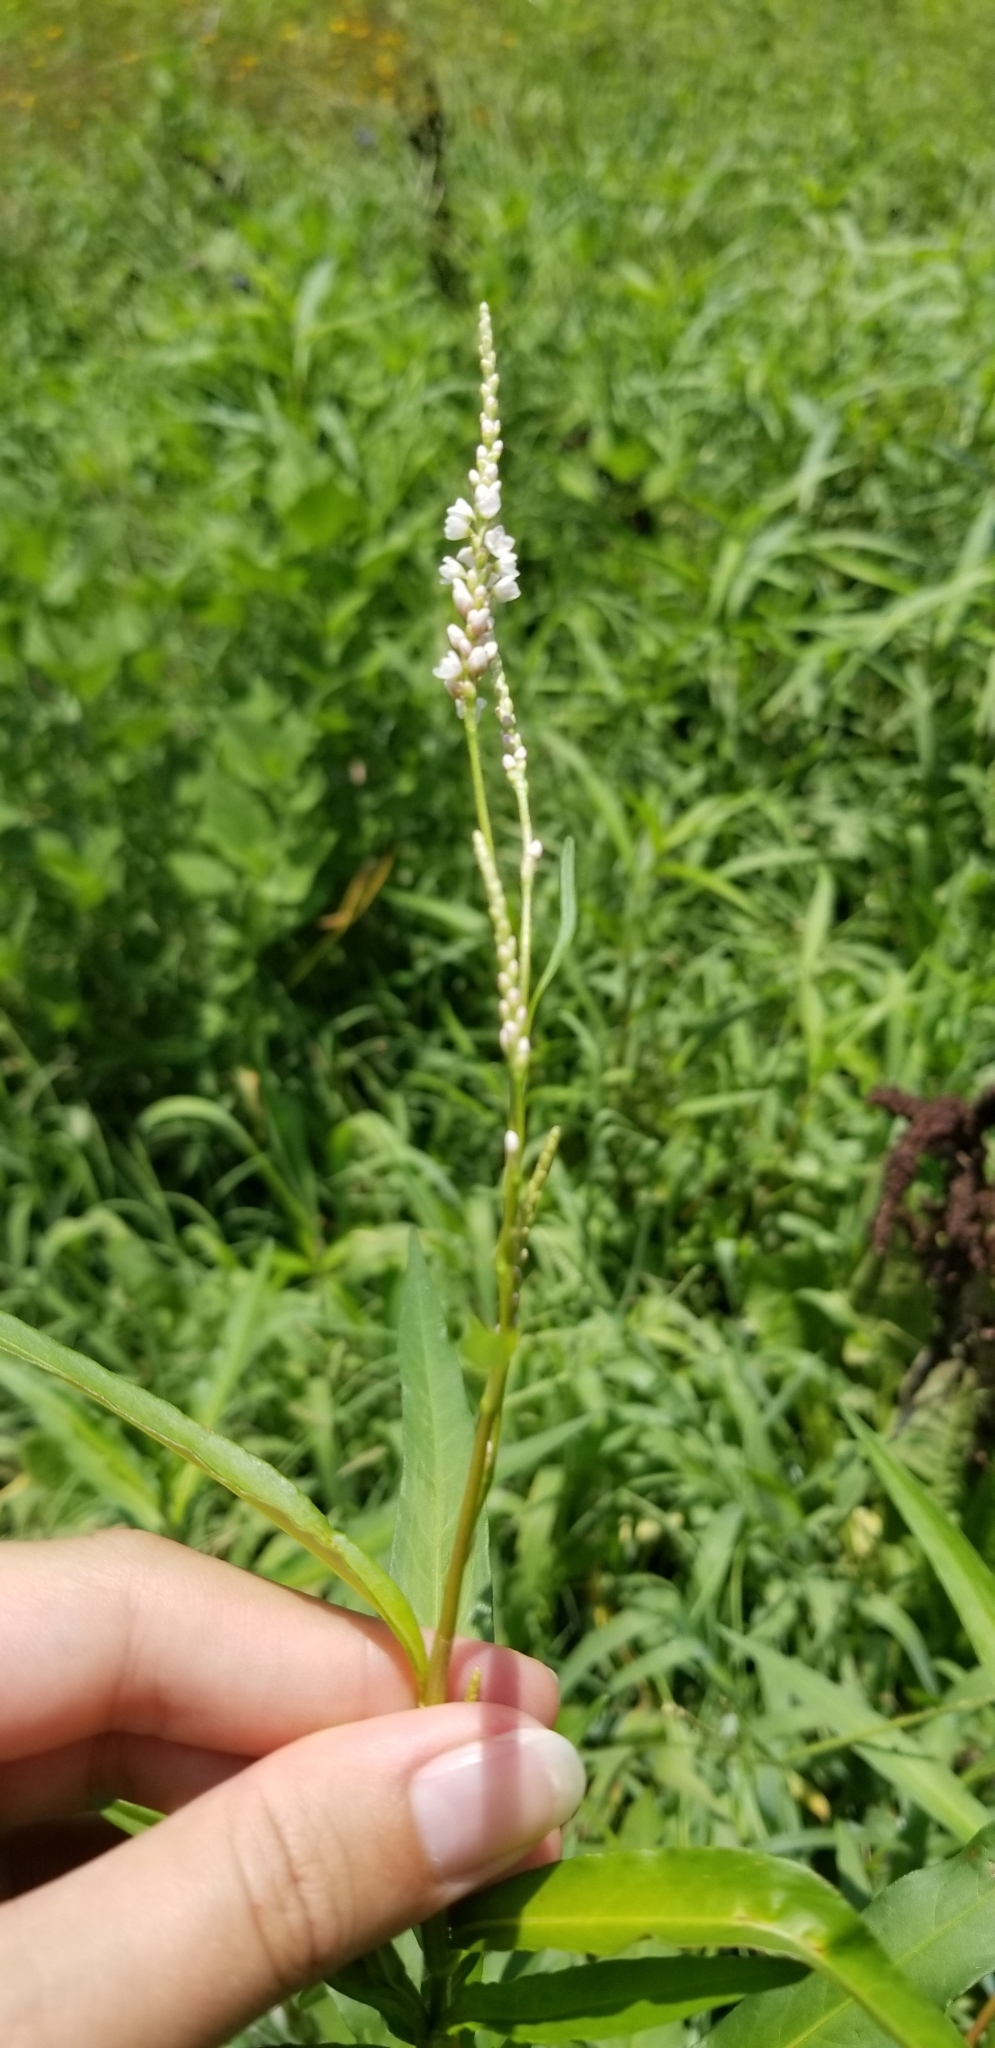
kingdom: Plantae
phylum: Tracheophyta
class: Magnoliopsida
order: Caryophyllales
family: Polygonaceae
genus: Persicaria
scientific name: Persicaria glabra
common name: Denseflower knotweed
